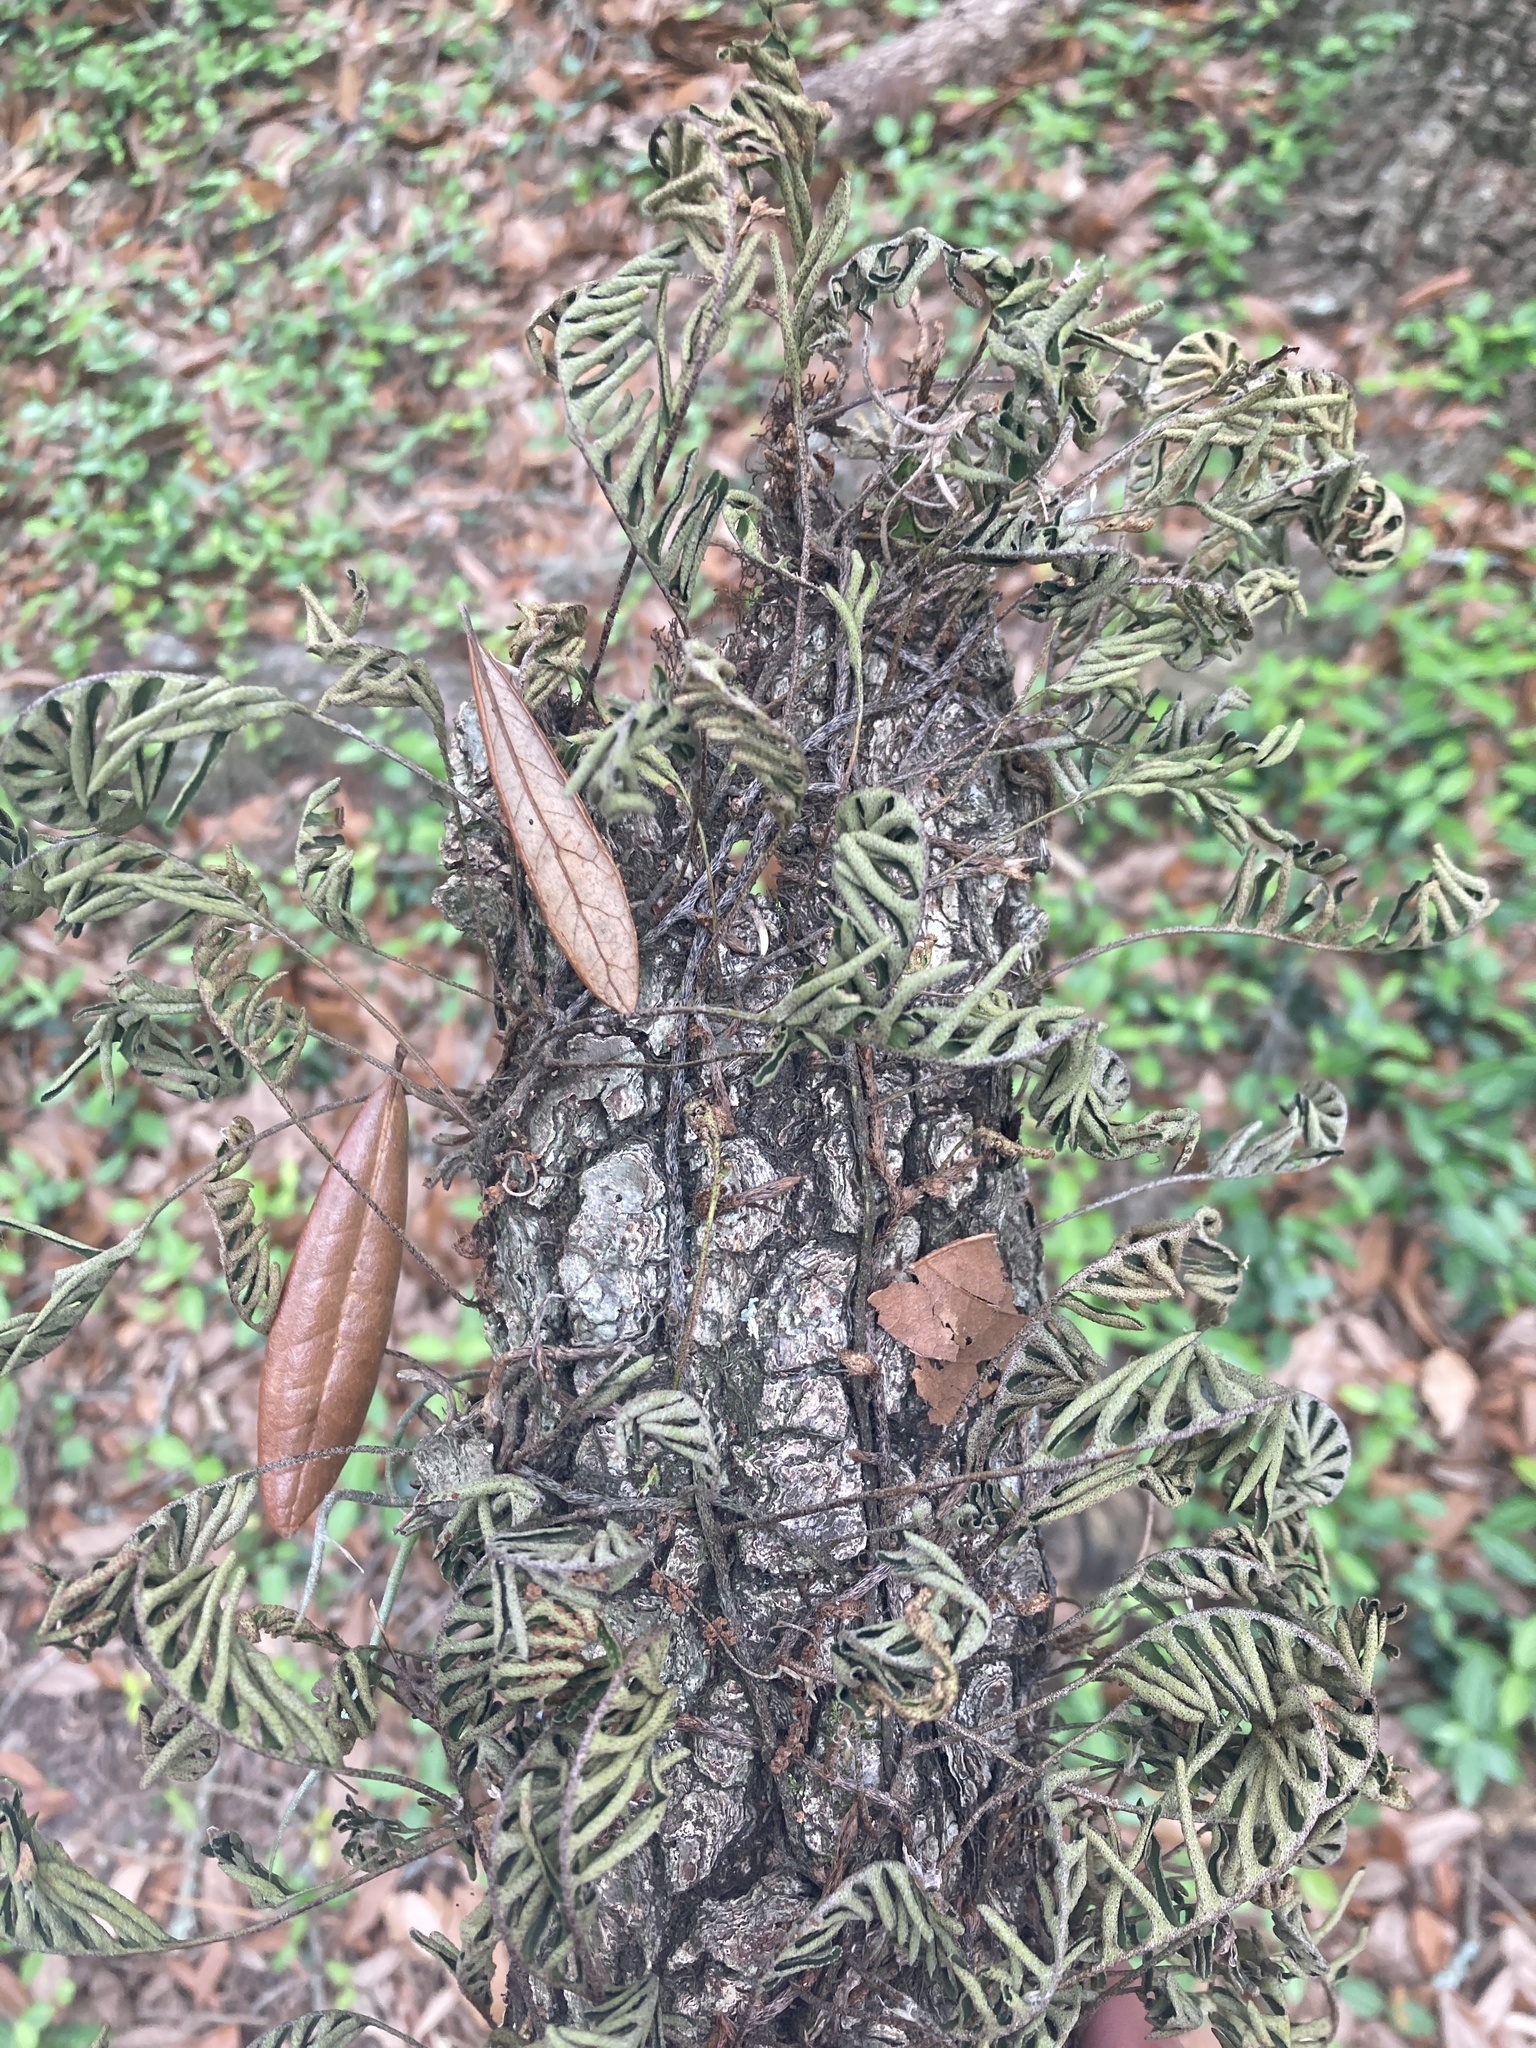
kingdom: Plantae
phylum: Tracheophyta
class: Polypodiopsida
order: Polypodiales
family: Polypodiaceae
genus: Pleopeltis
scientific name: Pleopeltis michauxiana
